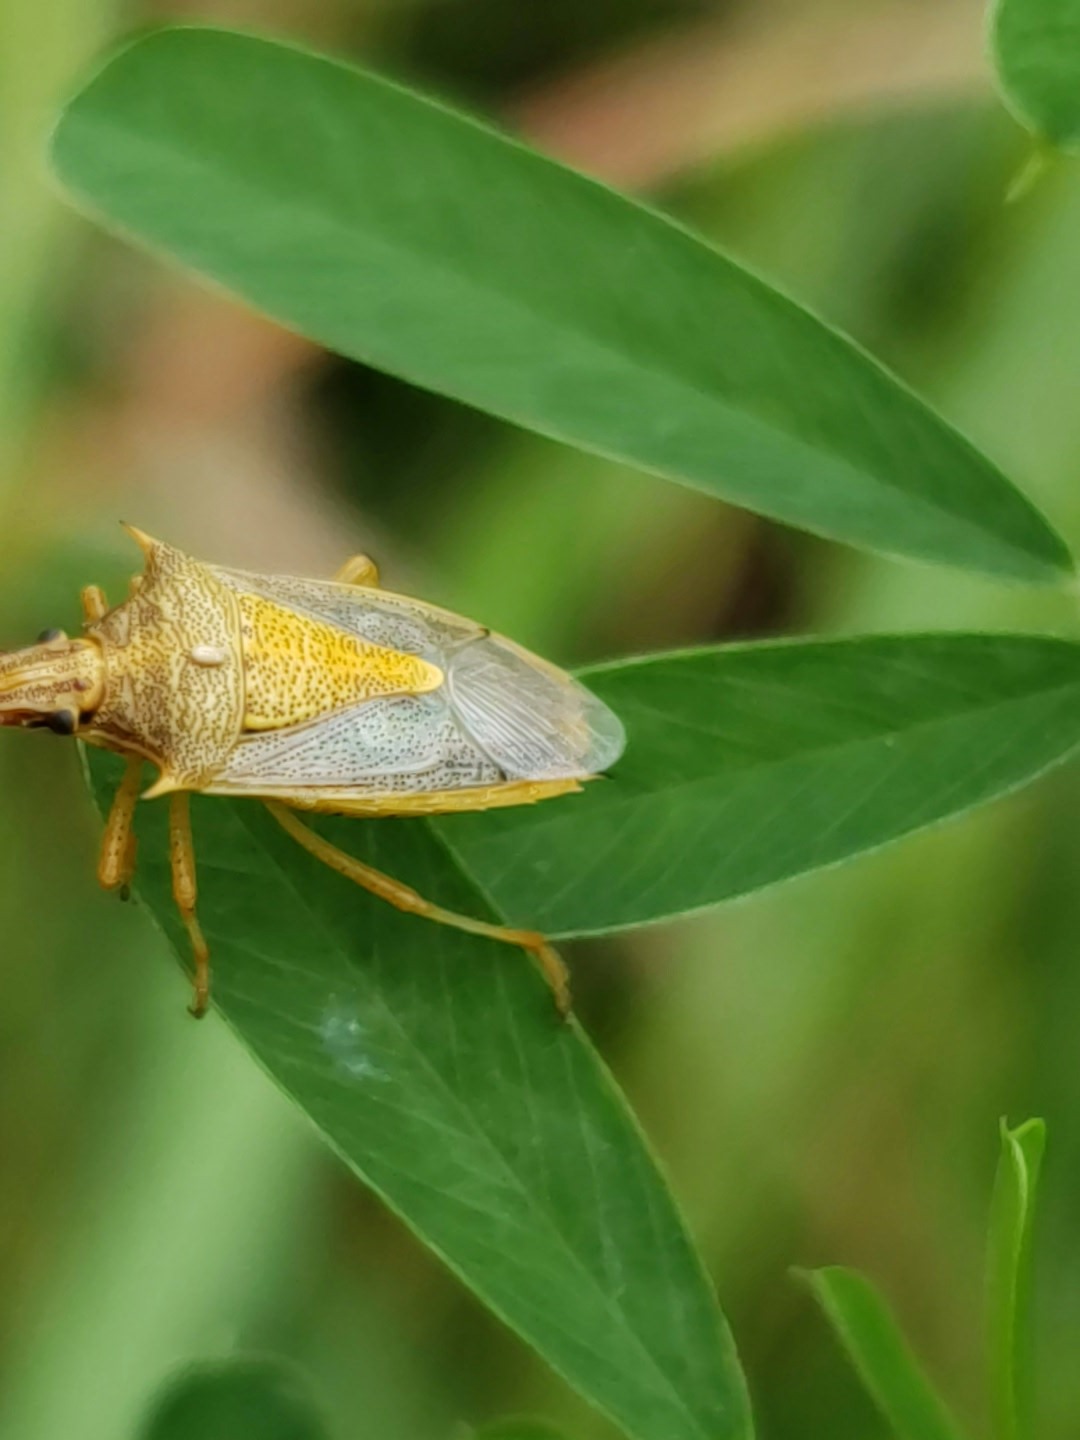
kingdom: Animalia
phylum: Arthropoda
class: Insecta
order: Hemiptera
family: Pentatomidae
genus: Oebalus
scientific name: Oebalus pugnax
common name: Rice stink bug
